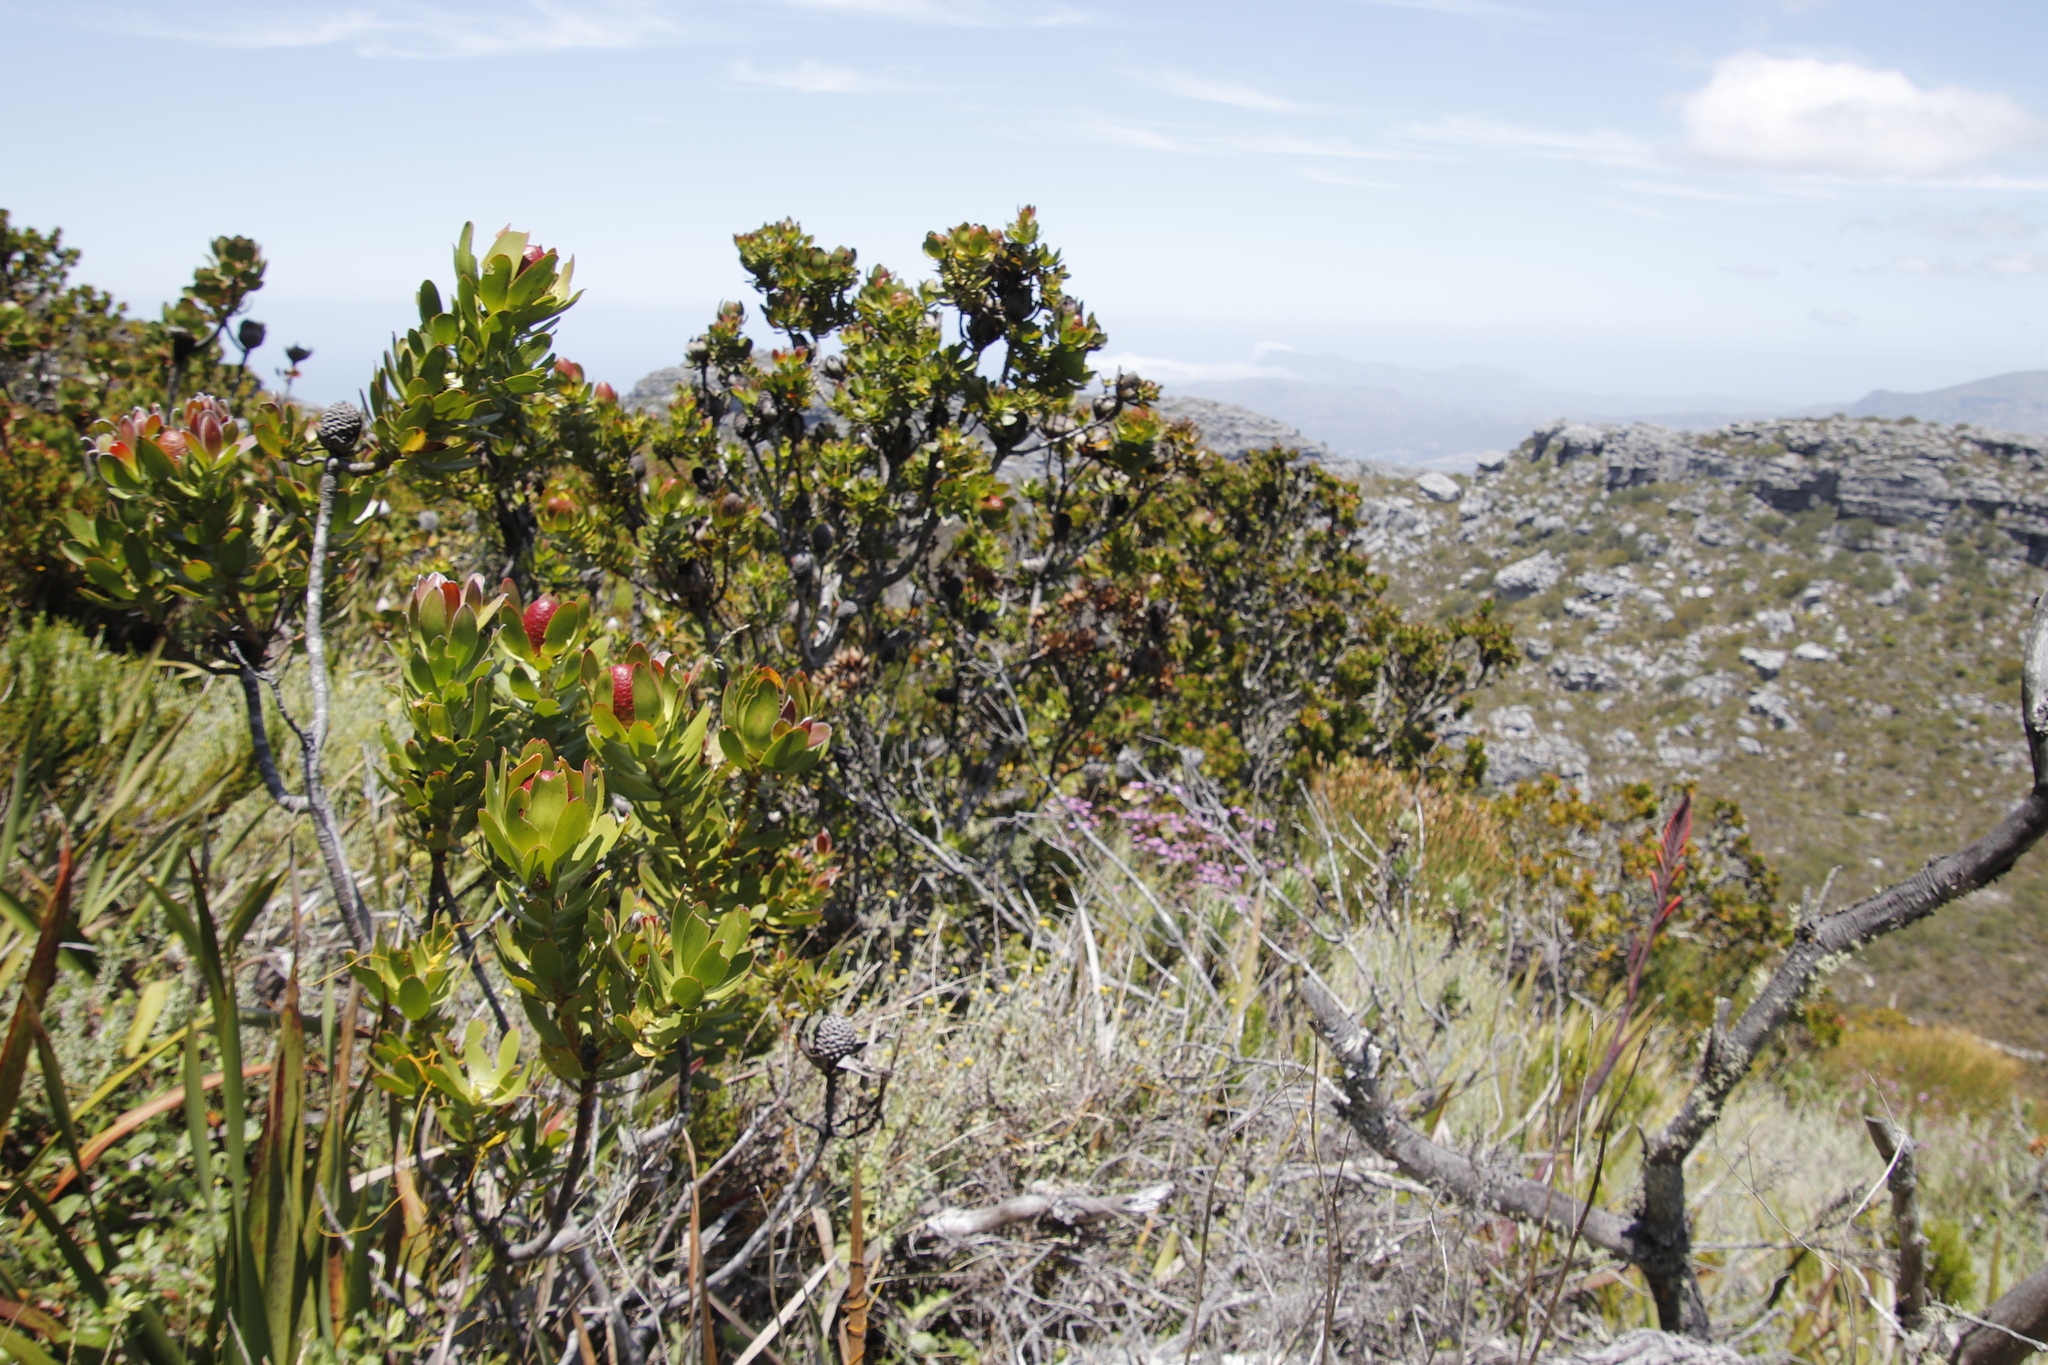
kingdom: Plantae
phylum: Tracheophyta
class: Magnoliopsida
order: Proteales
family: Proteaceae
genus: Leucadendron
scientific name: Leucadendron strobilinum
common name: Mountain rose
